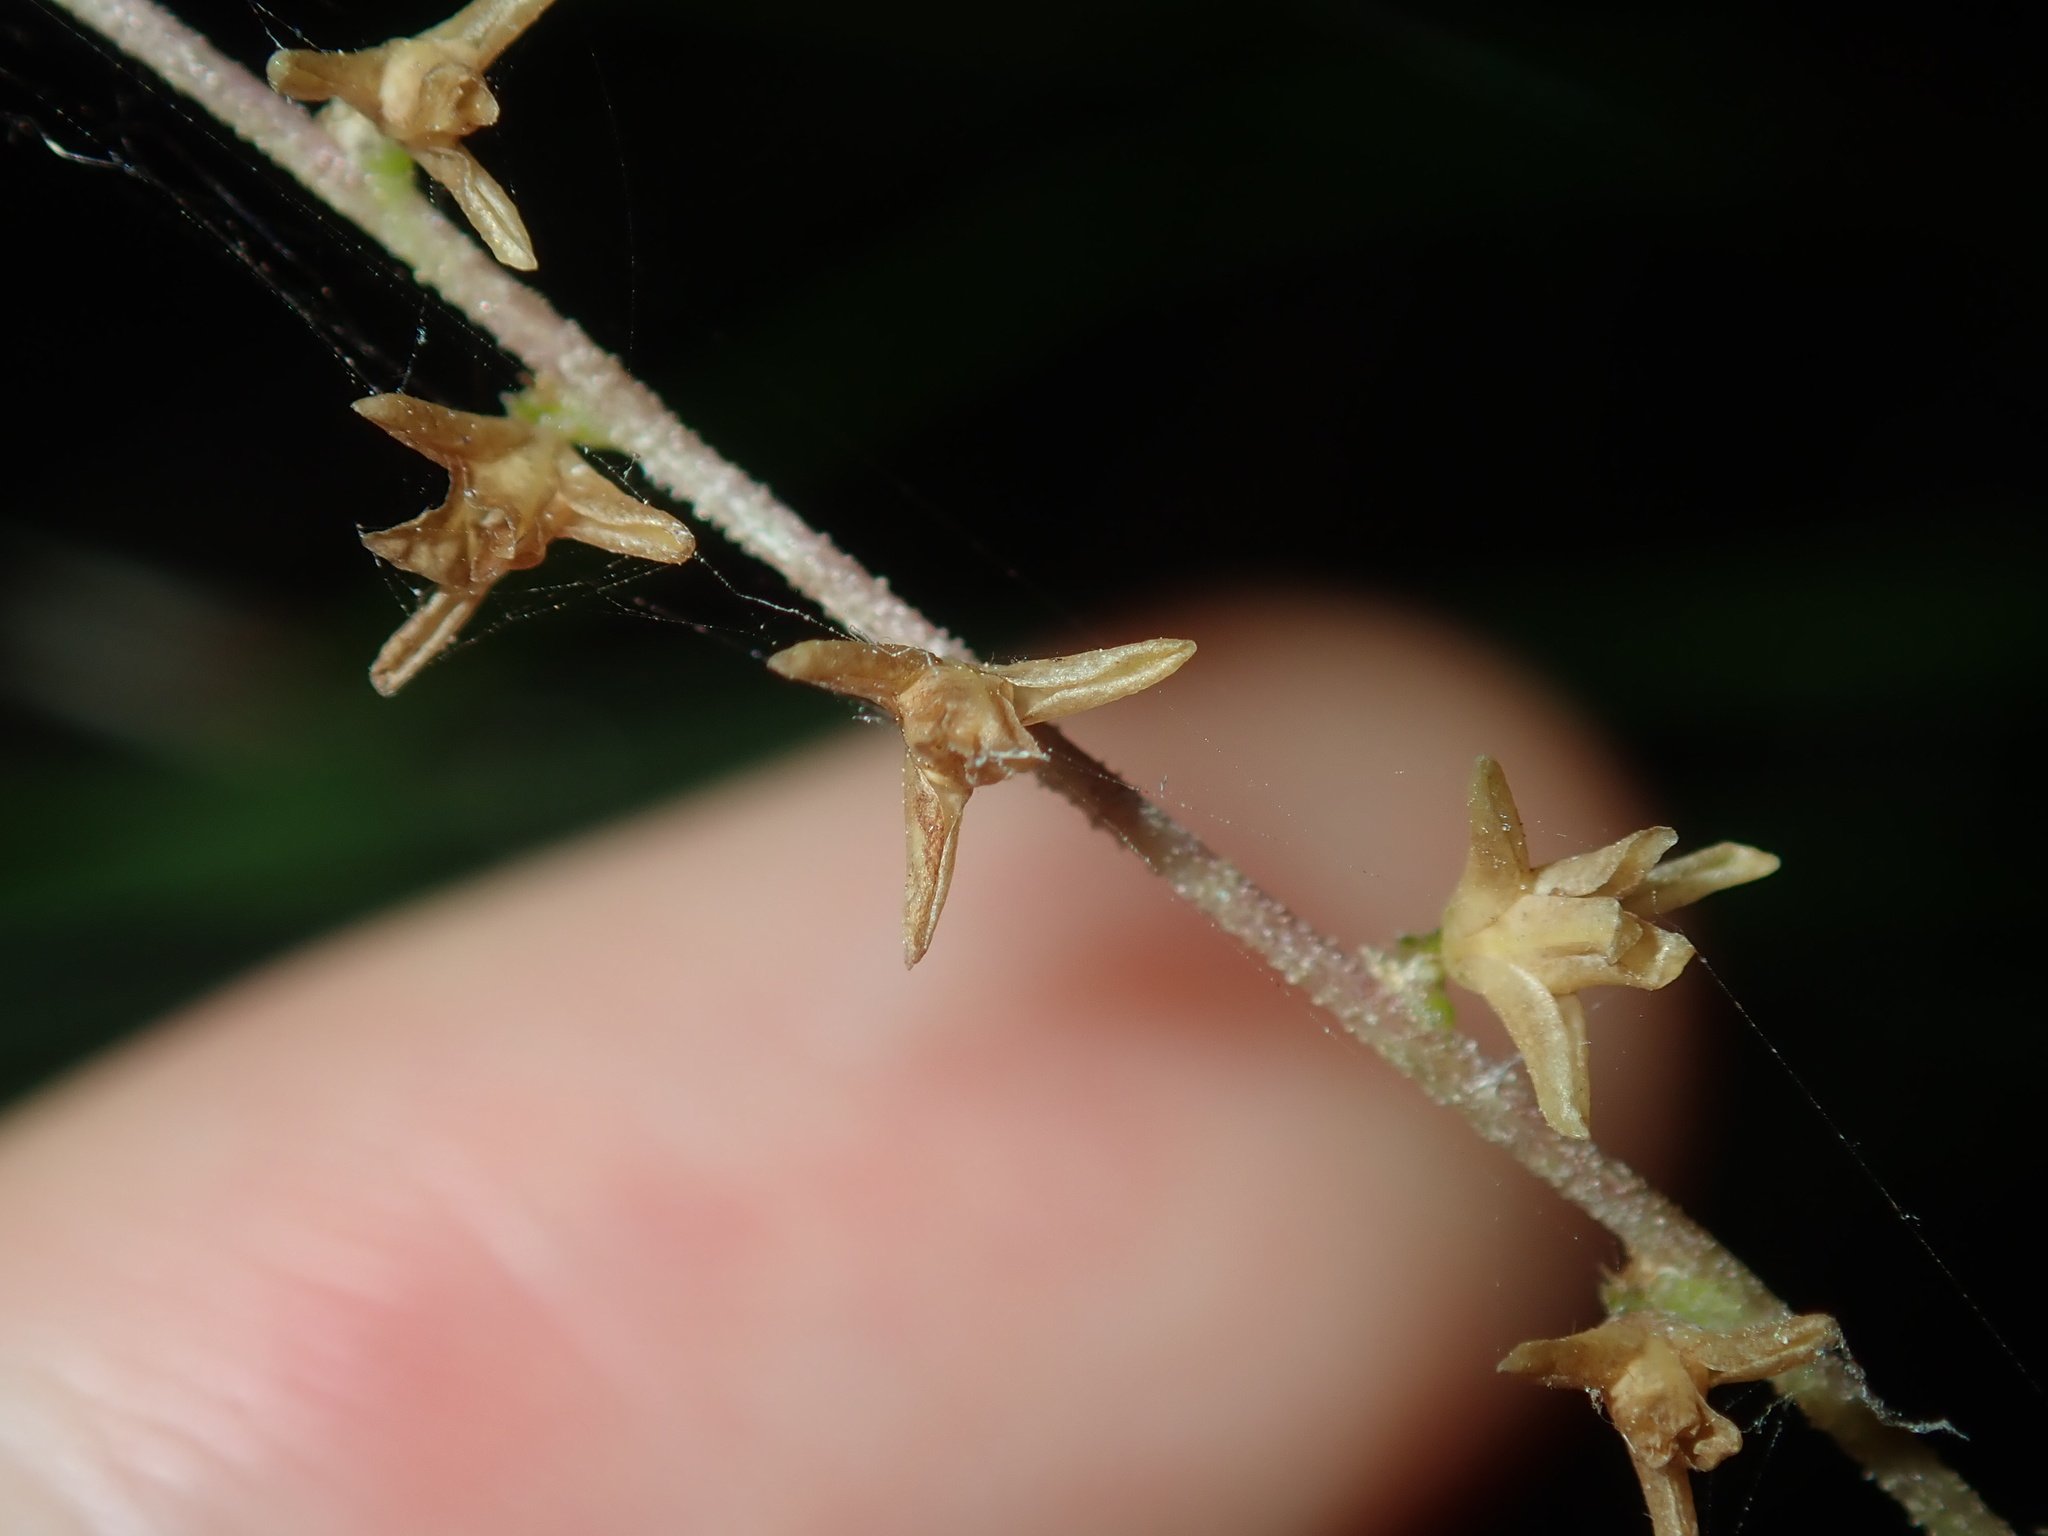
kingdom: Plantae
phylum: Tracheophyta
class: Liliopsida
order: Asparagales
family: Asparagaceae
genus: Lomandra
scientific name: Lomandra micrantha
